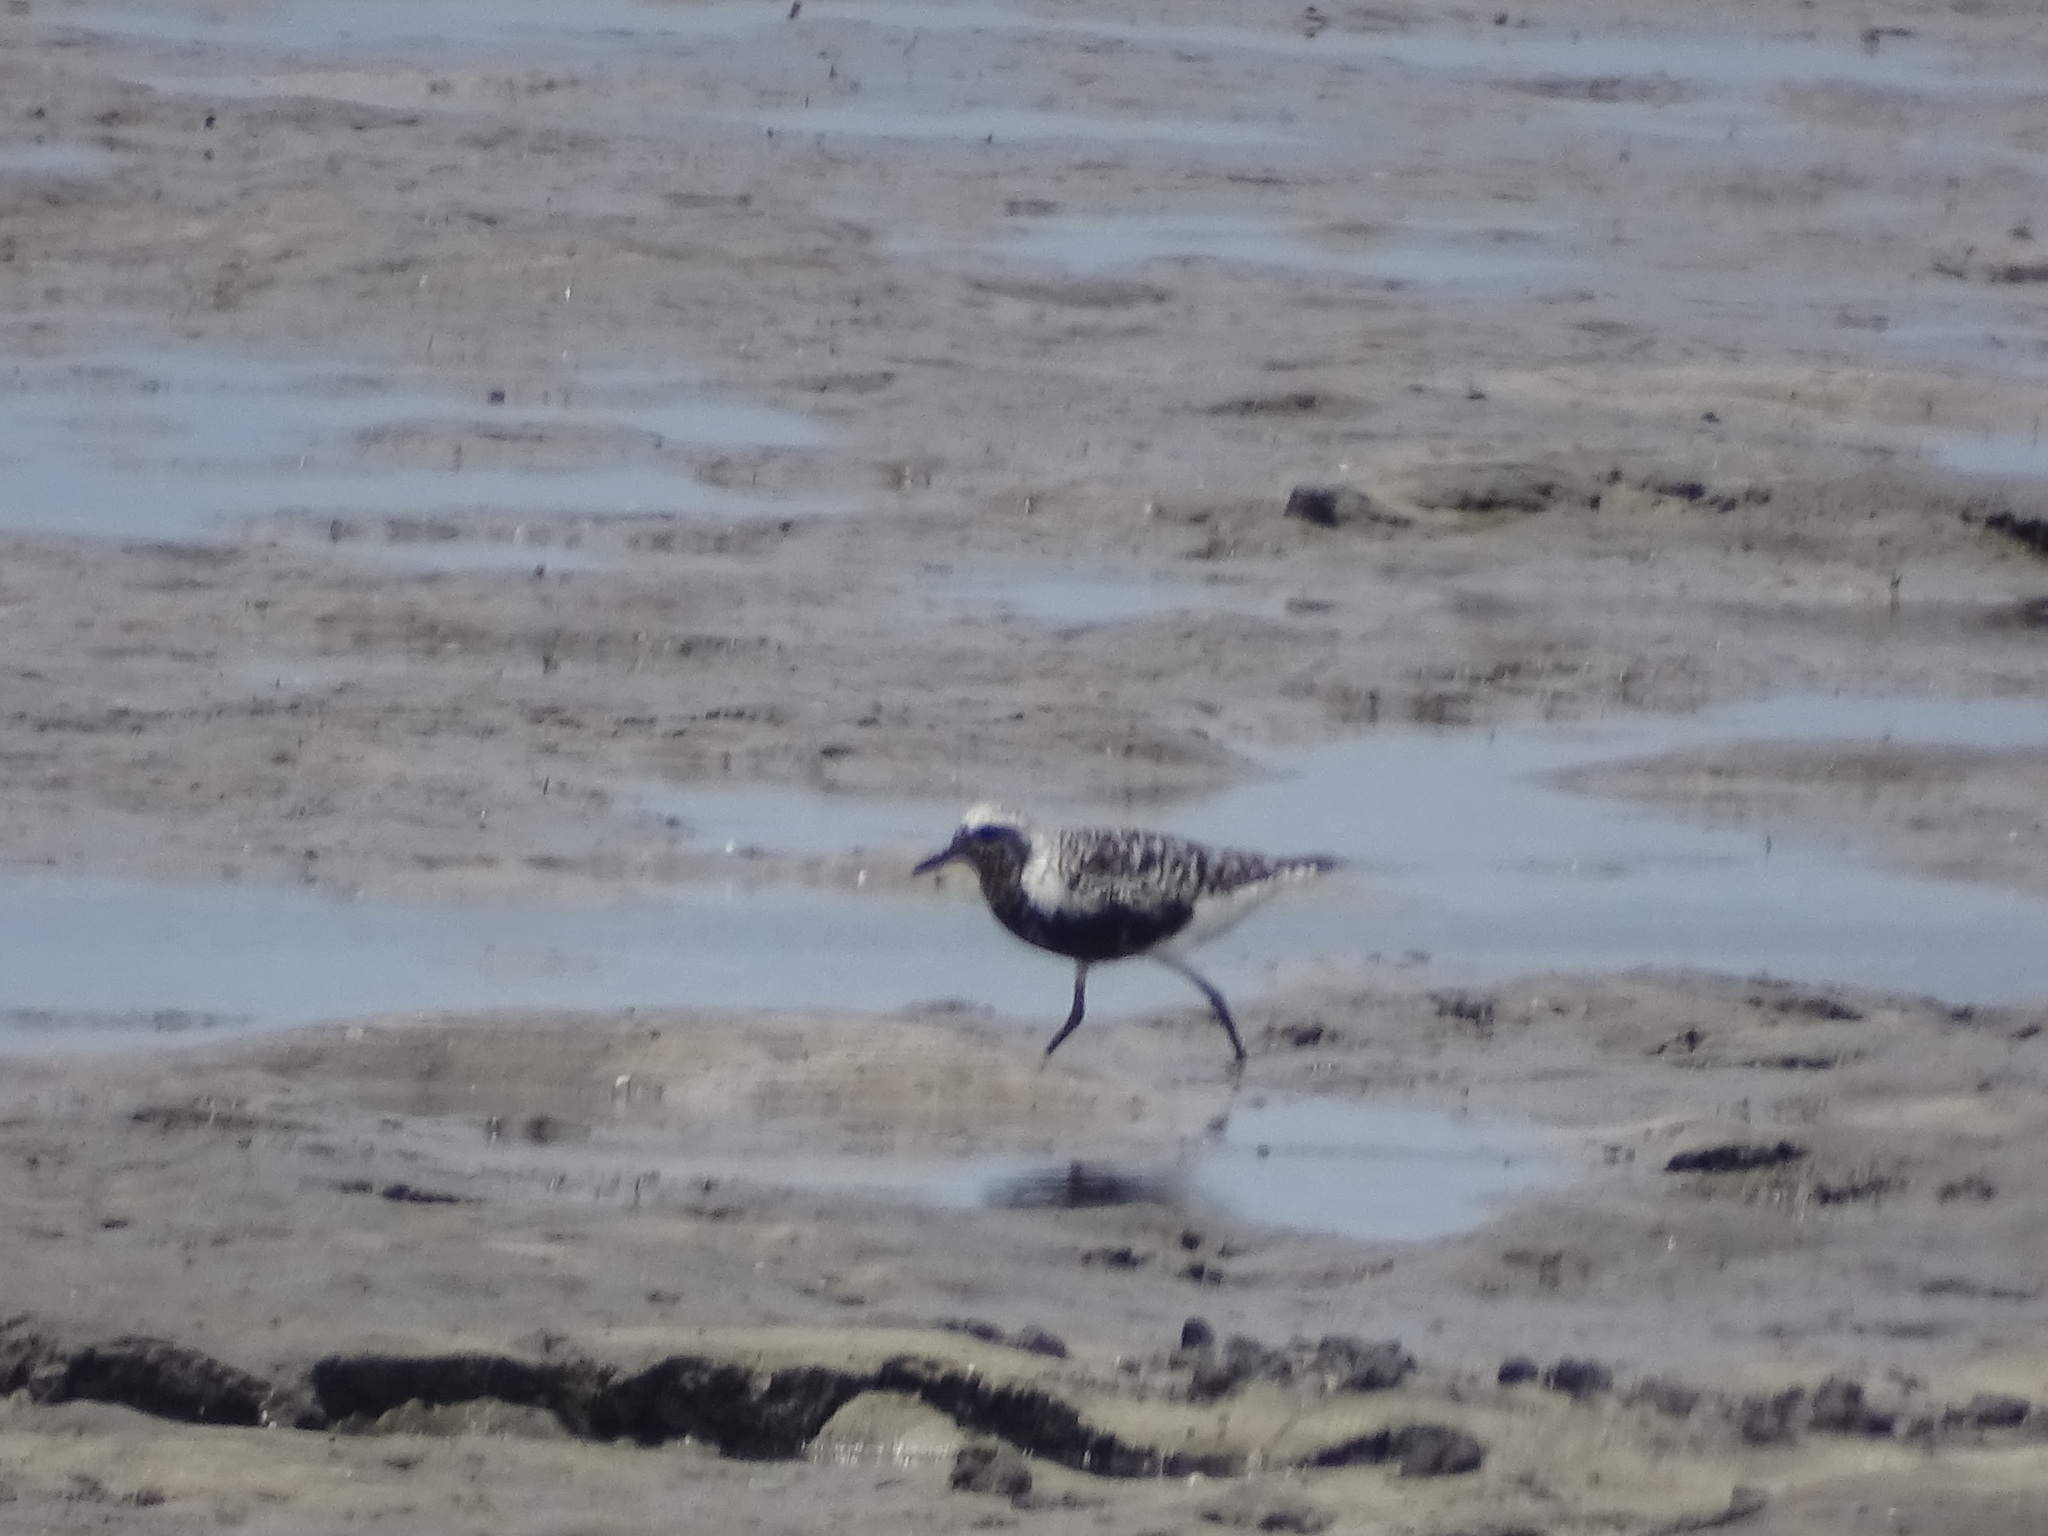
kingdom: Animalia
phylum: Chordata
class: Aves
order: Charadriiformes
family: Charadriidae
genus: Pluvialis
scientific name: Pluvialis squatarola
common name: Grey plover
